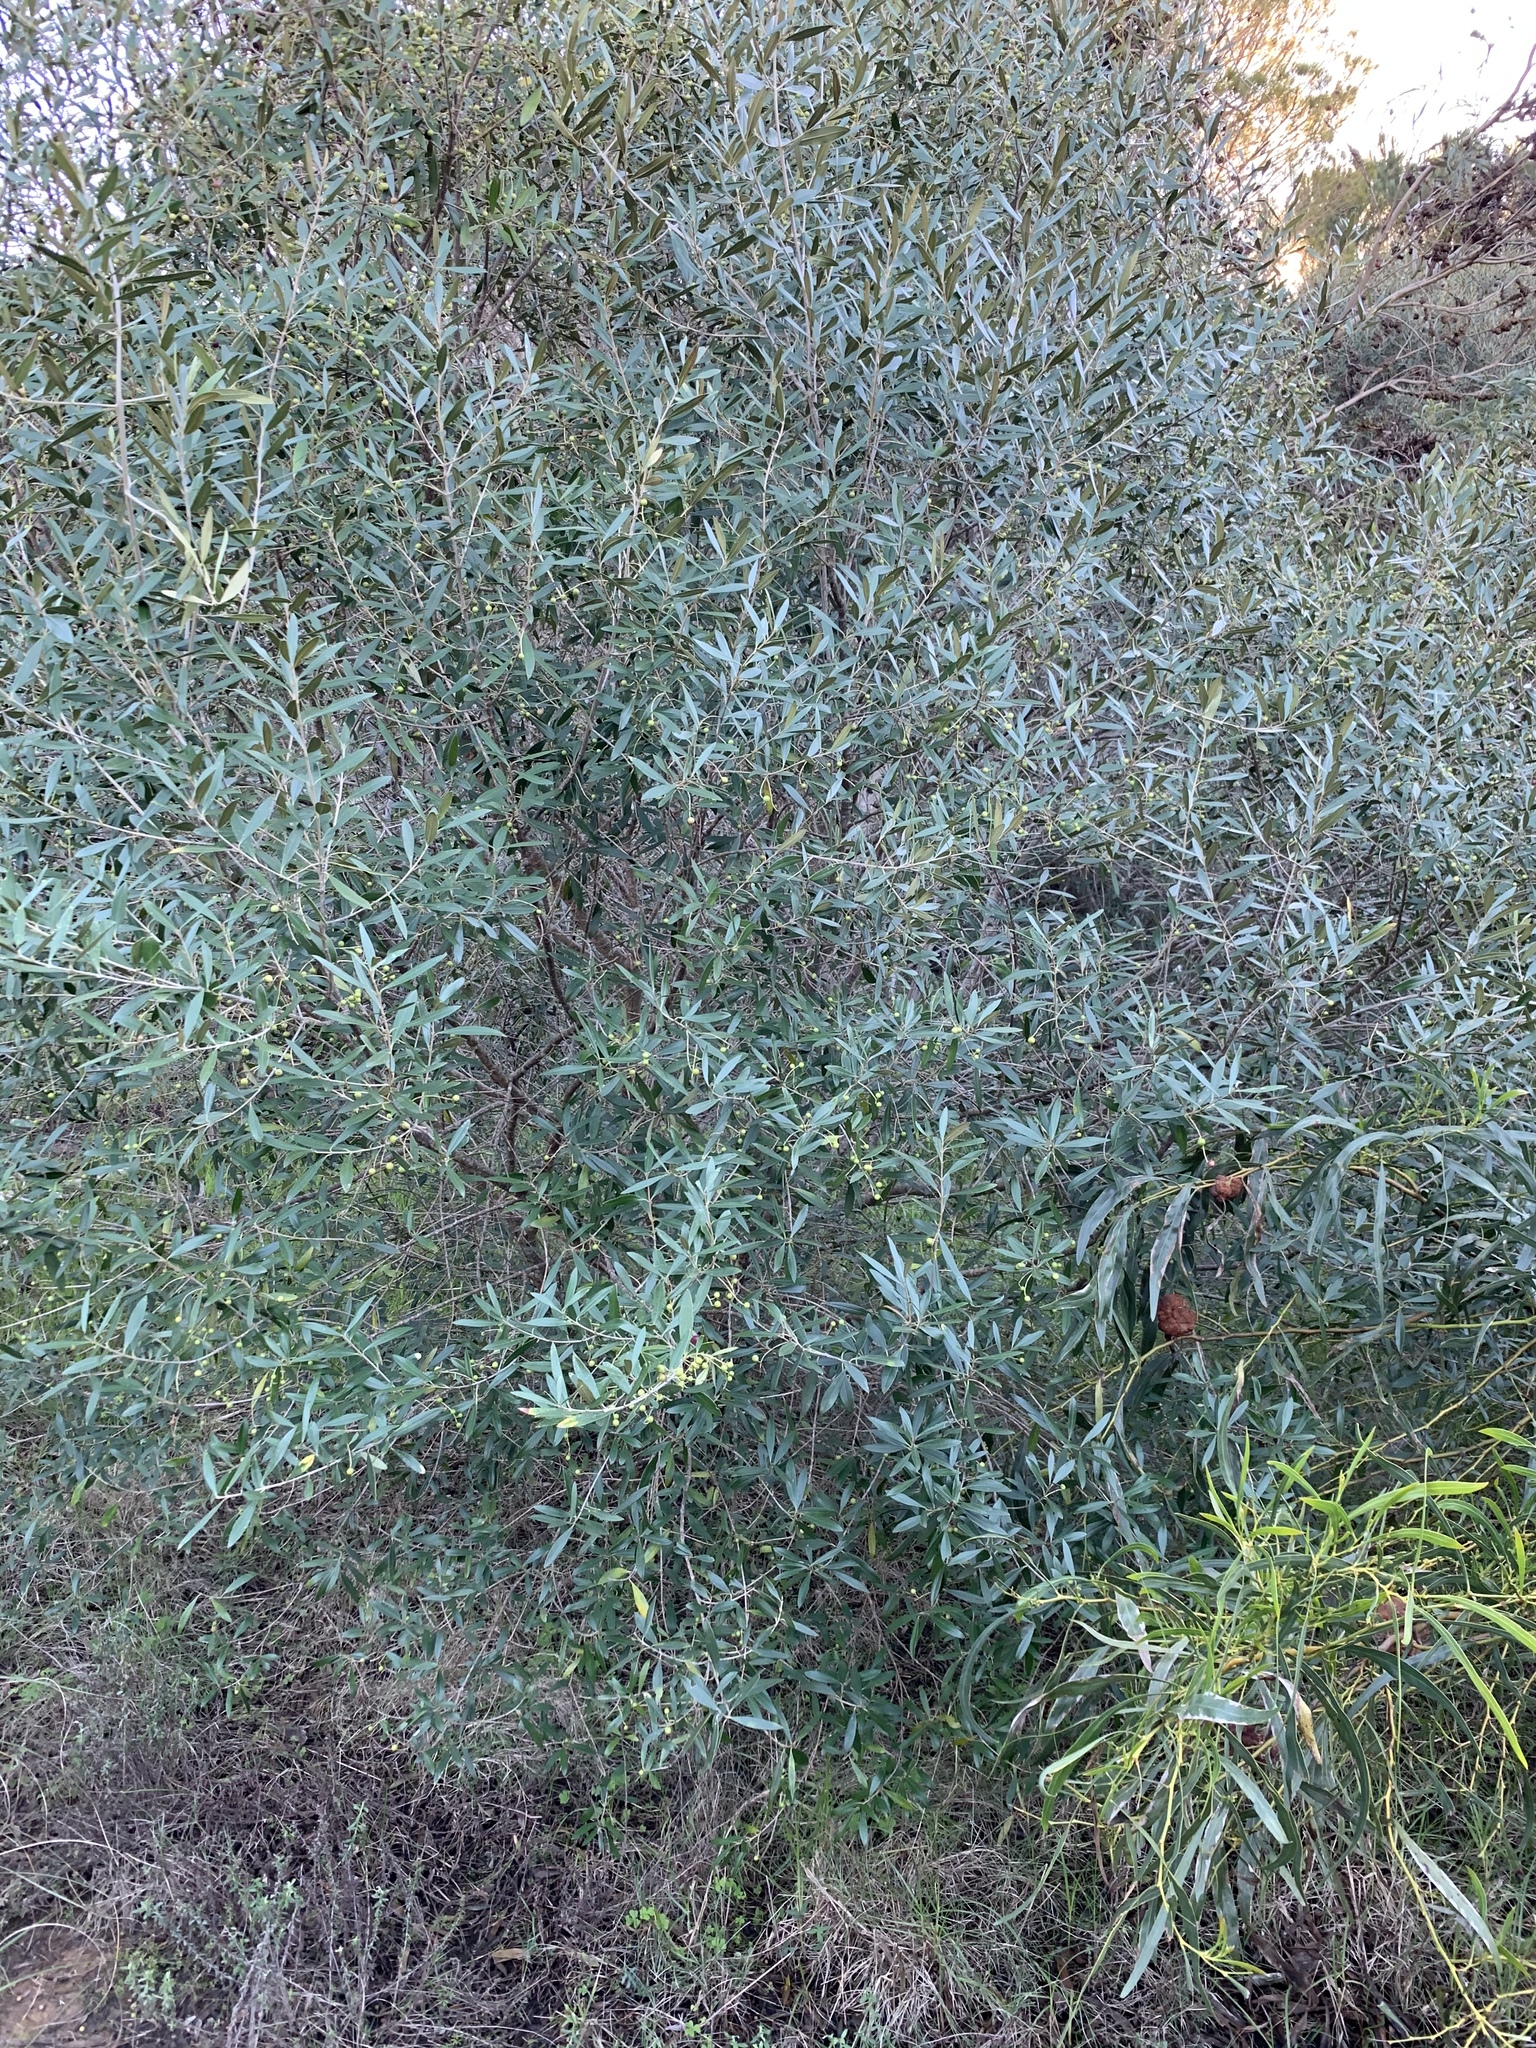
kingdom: Plantae
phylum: Tracheophyta
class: Magnoliopsida
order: Lamiales
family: Oleaceae
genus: Olea
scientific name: Olea europaea
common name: Olive
